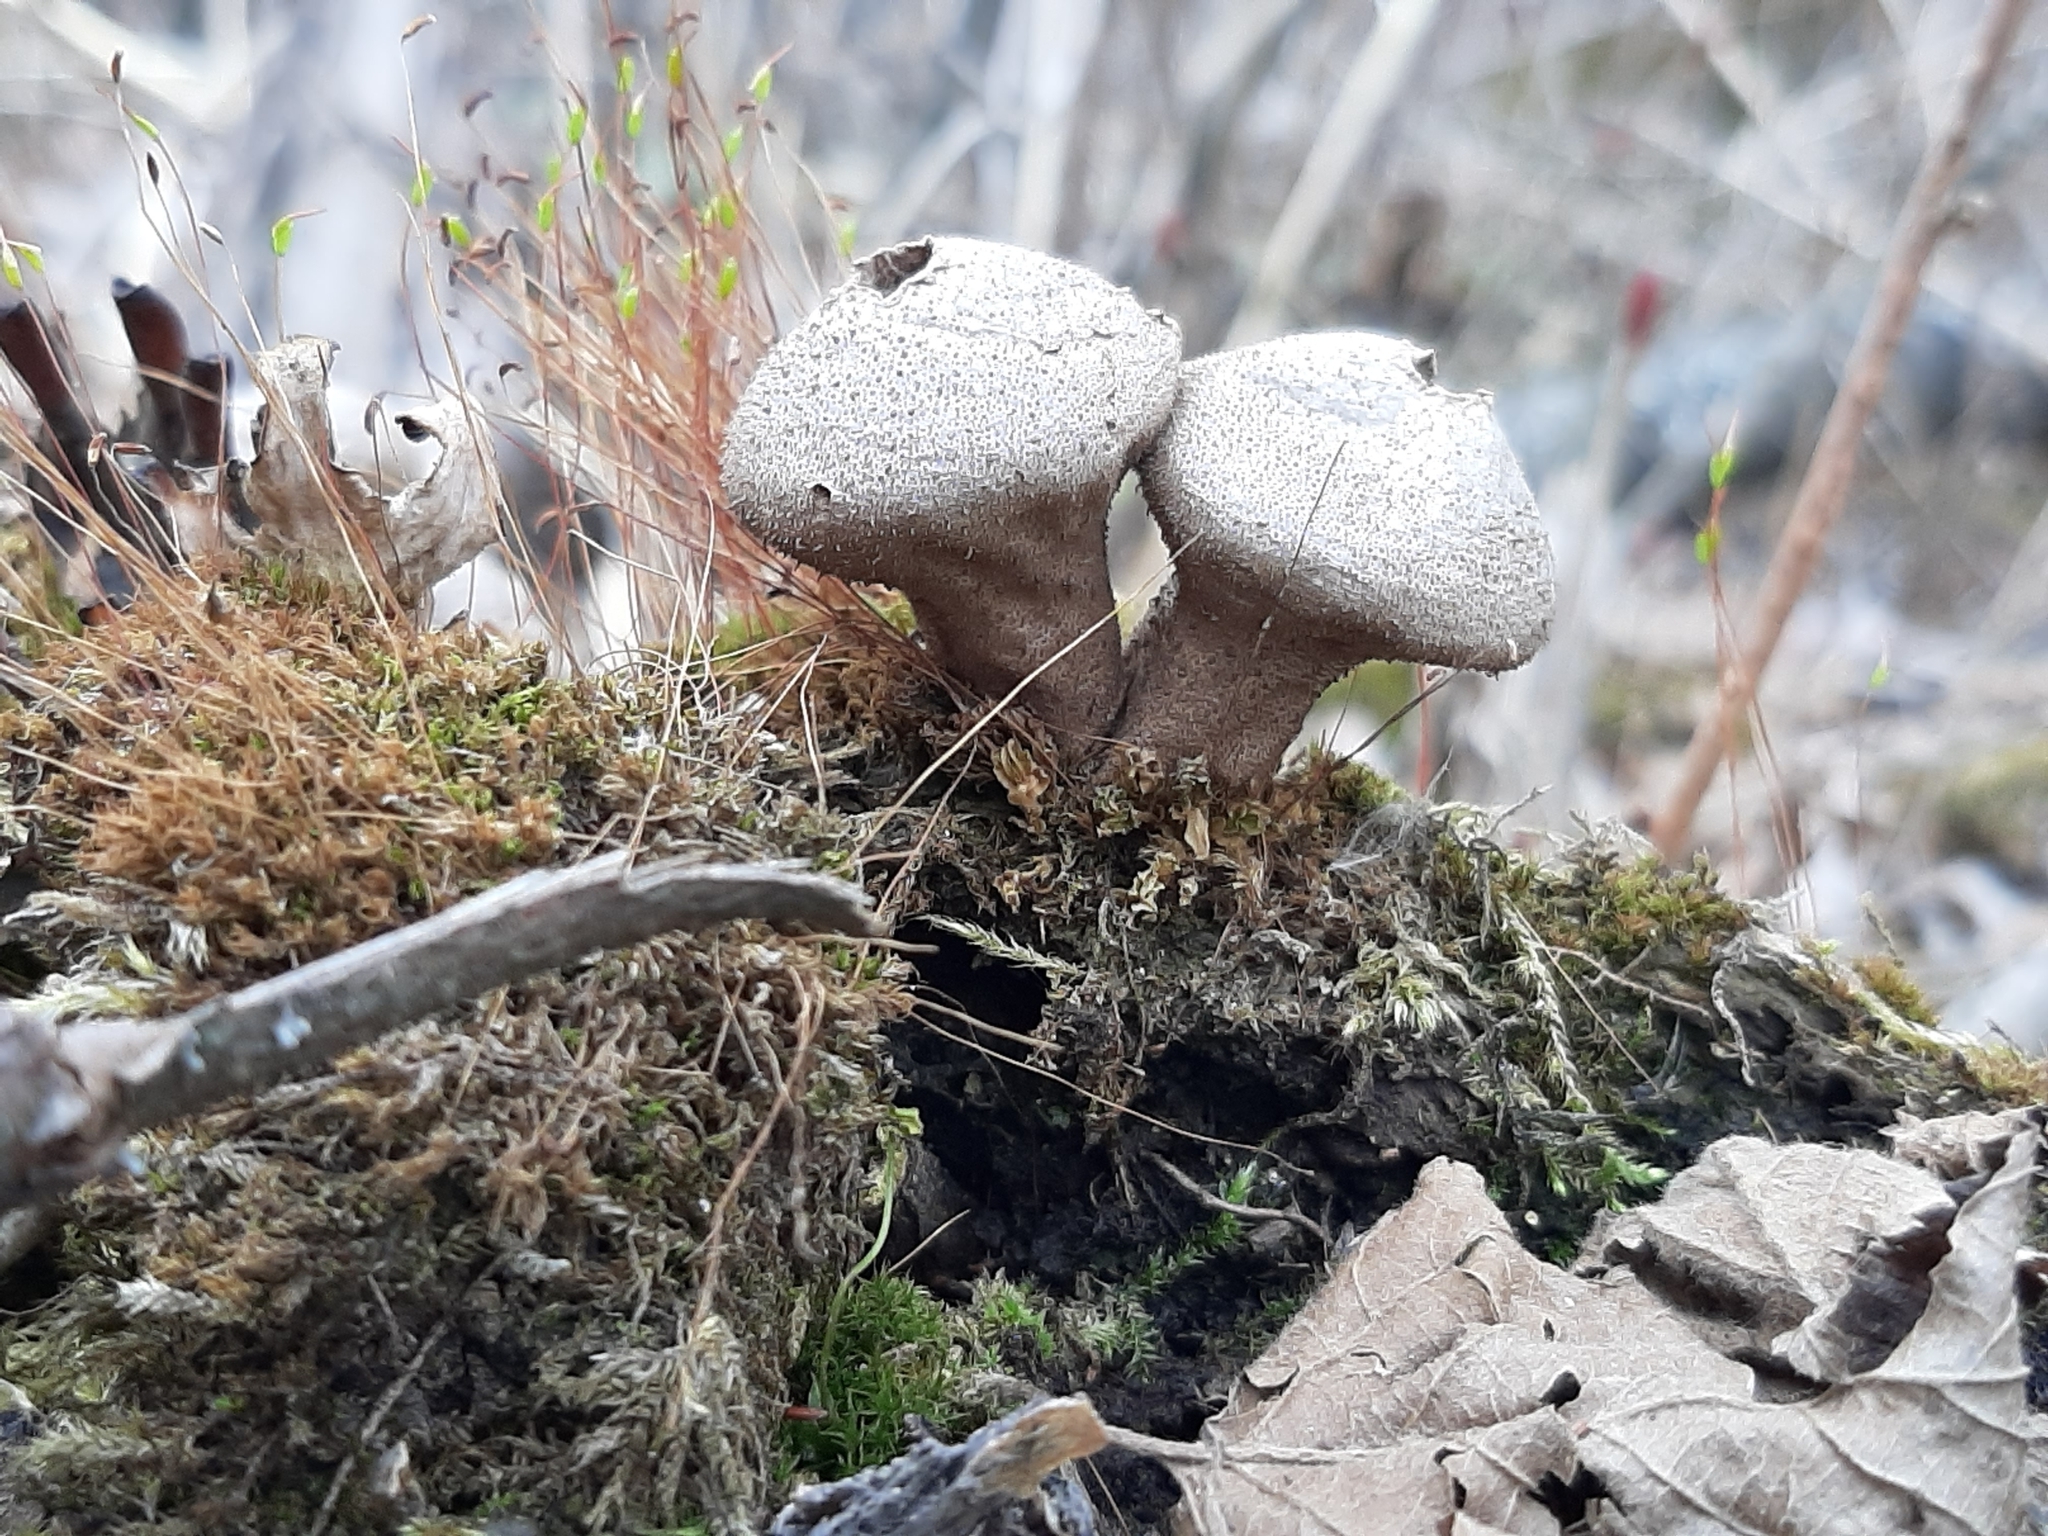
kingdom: Fungi
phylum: Basidiomycota
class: Agaricomycetes
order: Agaricales
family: Lycoperdaceae
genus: Lycoperdon
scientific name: Lycoperdon perlatum
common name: Common puffball
